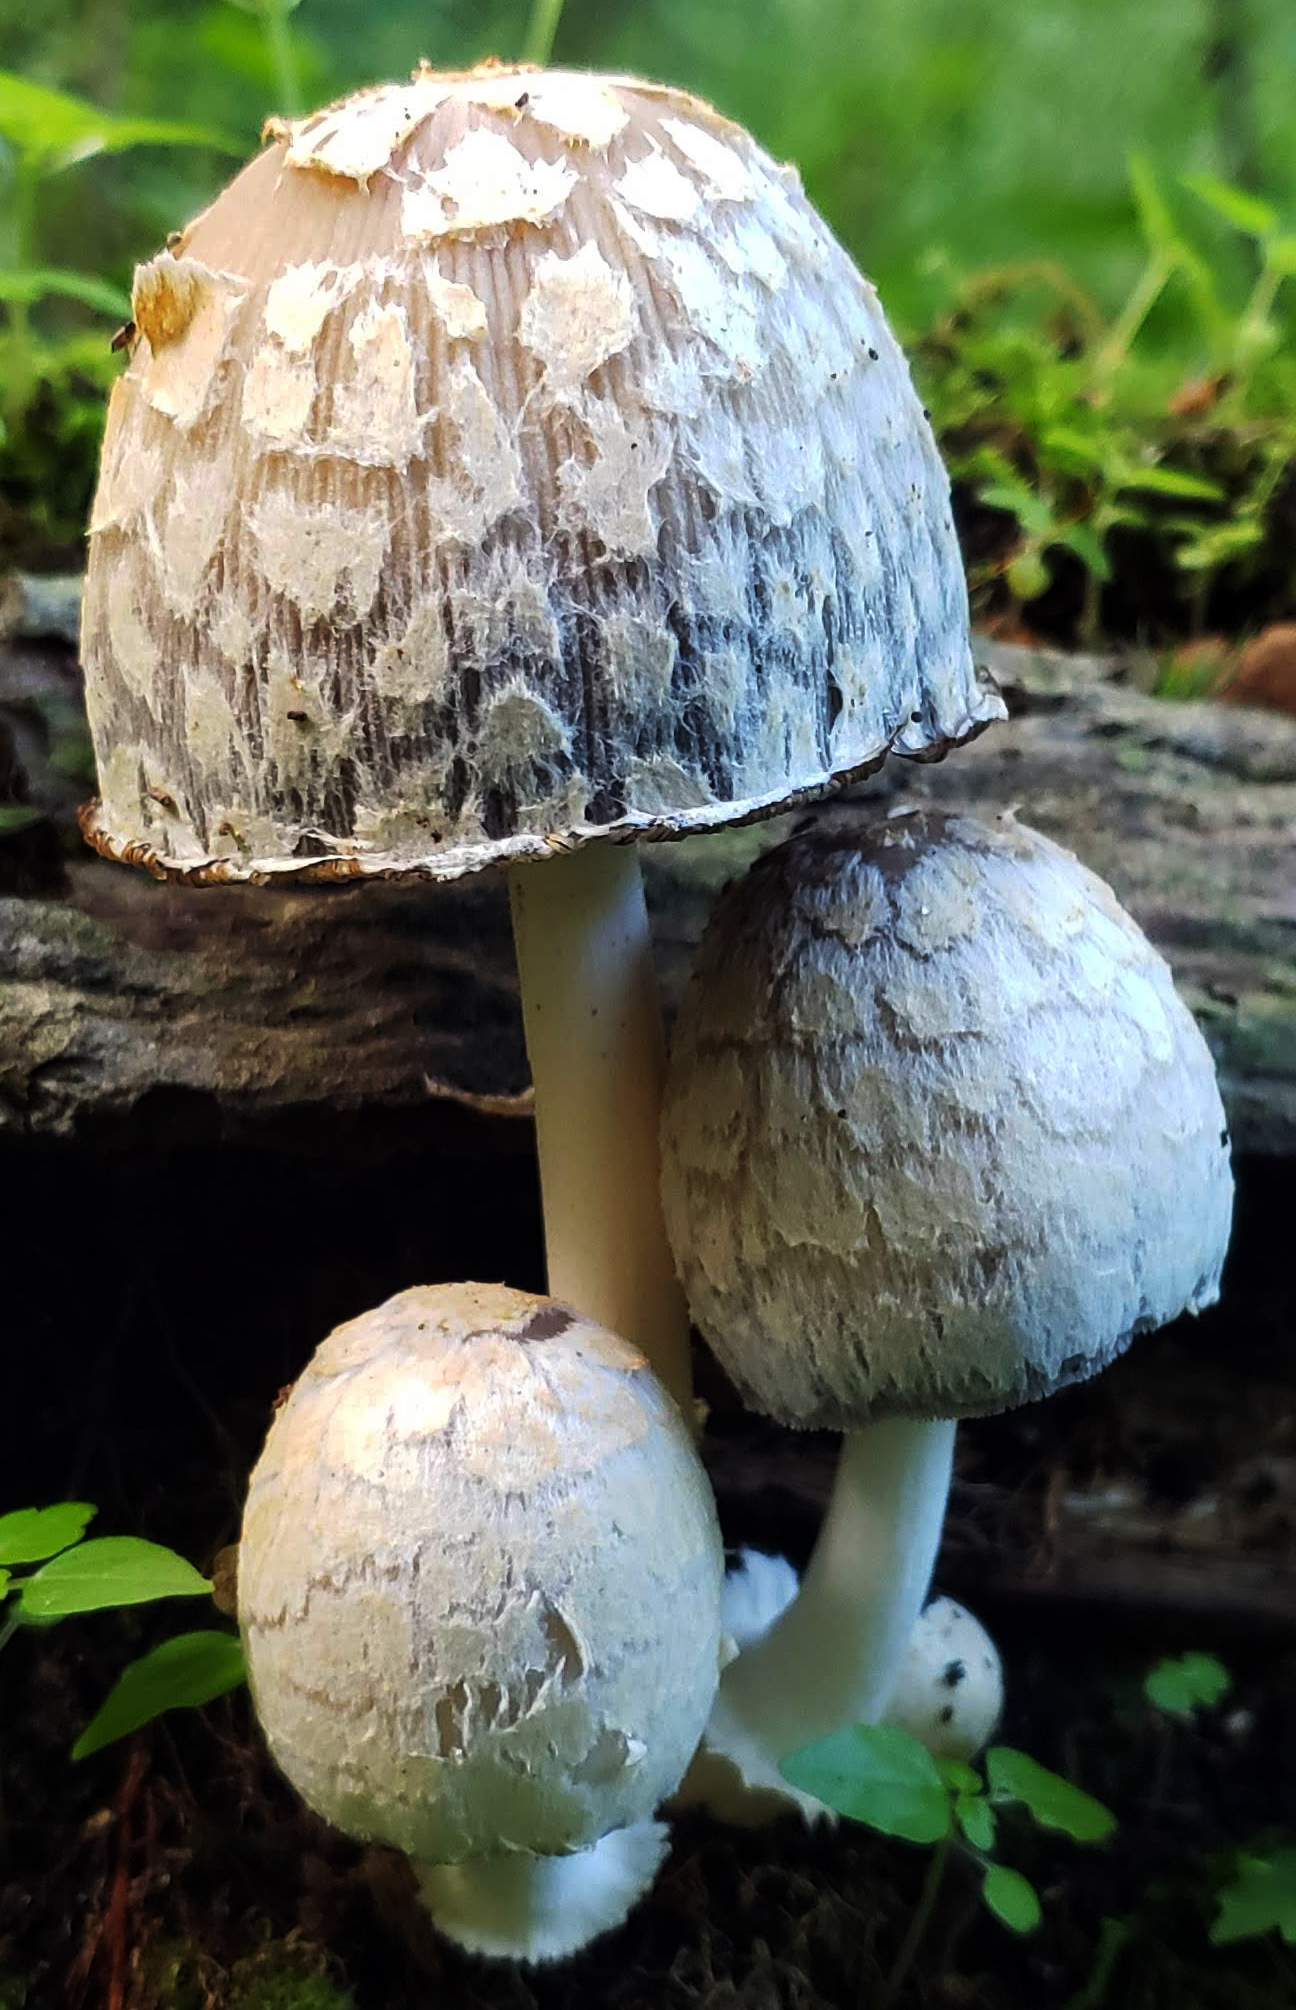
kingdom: Fungi
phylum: Basidiomycota
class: Agaricomycetes
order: Agaricales
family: Psathyrellaceae
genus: Coprinopsis
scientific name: Coprinopsis variegata
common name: Scaly ink cap
